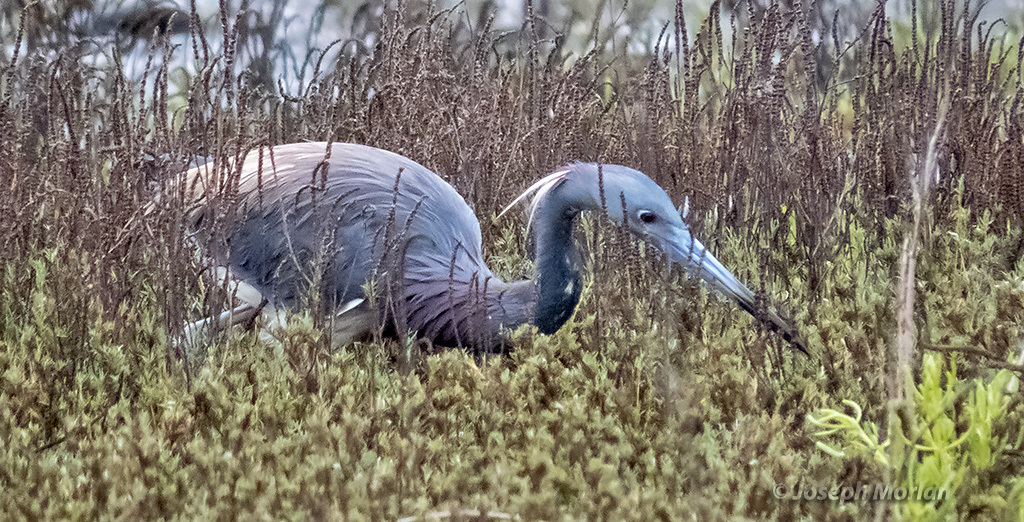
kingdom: Animalia
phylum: Chordata
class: Aves
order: Pelecaniformes
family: Ardeidae
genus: Egretta
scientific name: Egretta tricolor
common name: Tricolored heron
